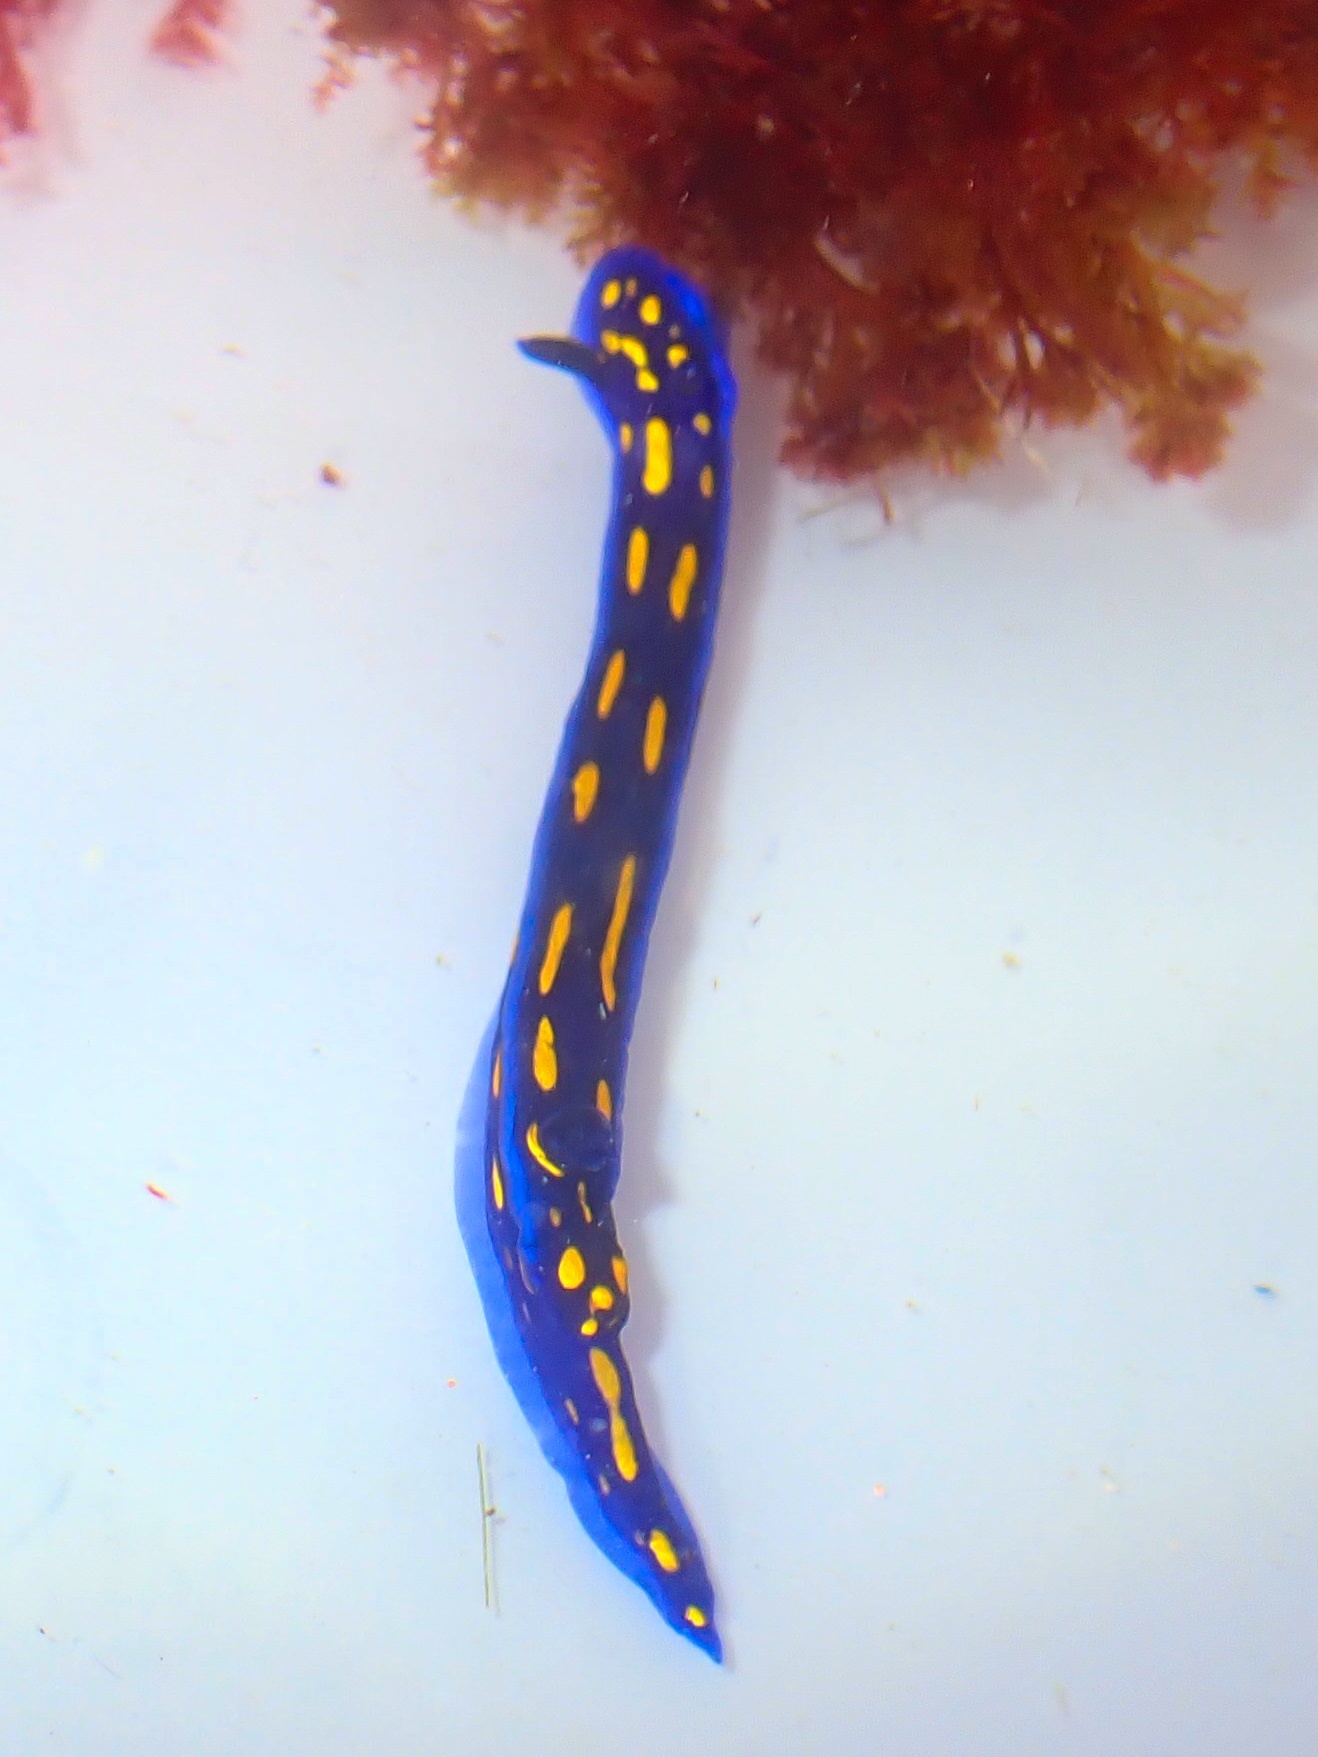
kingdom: Animalia
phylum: Mollusca
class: Gastropoda
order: Nudibranchia
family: Chromodorididae
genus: Felimare
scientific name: Felimare californiensis
